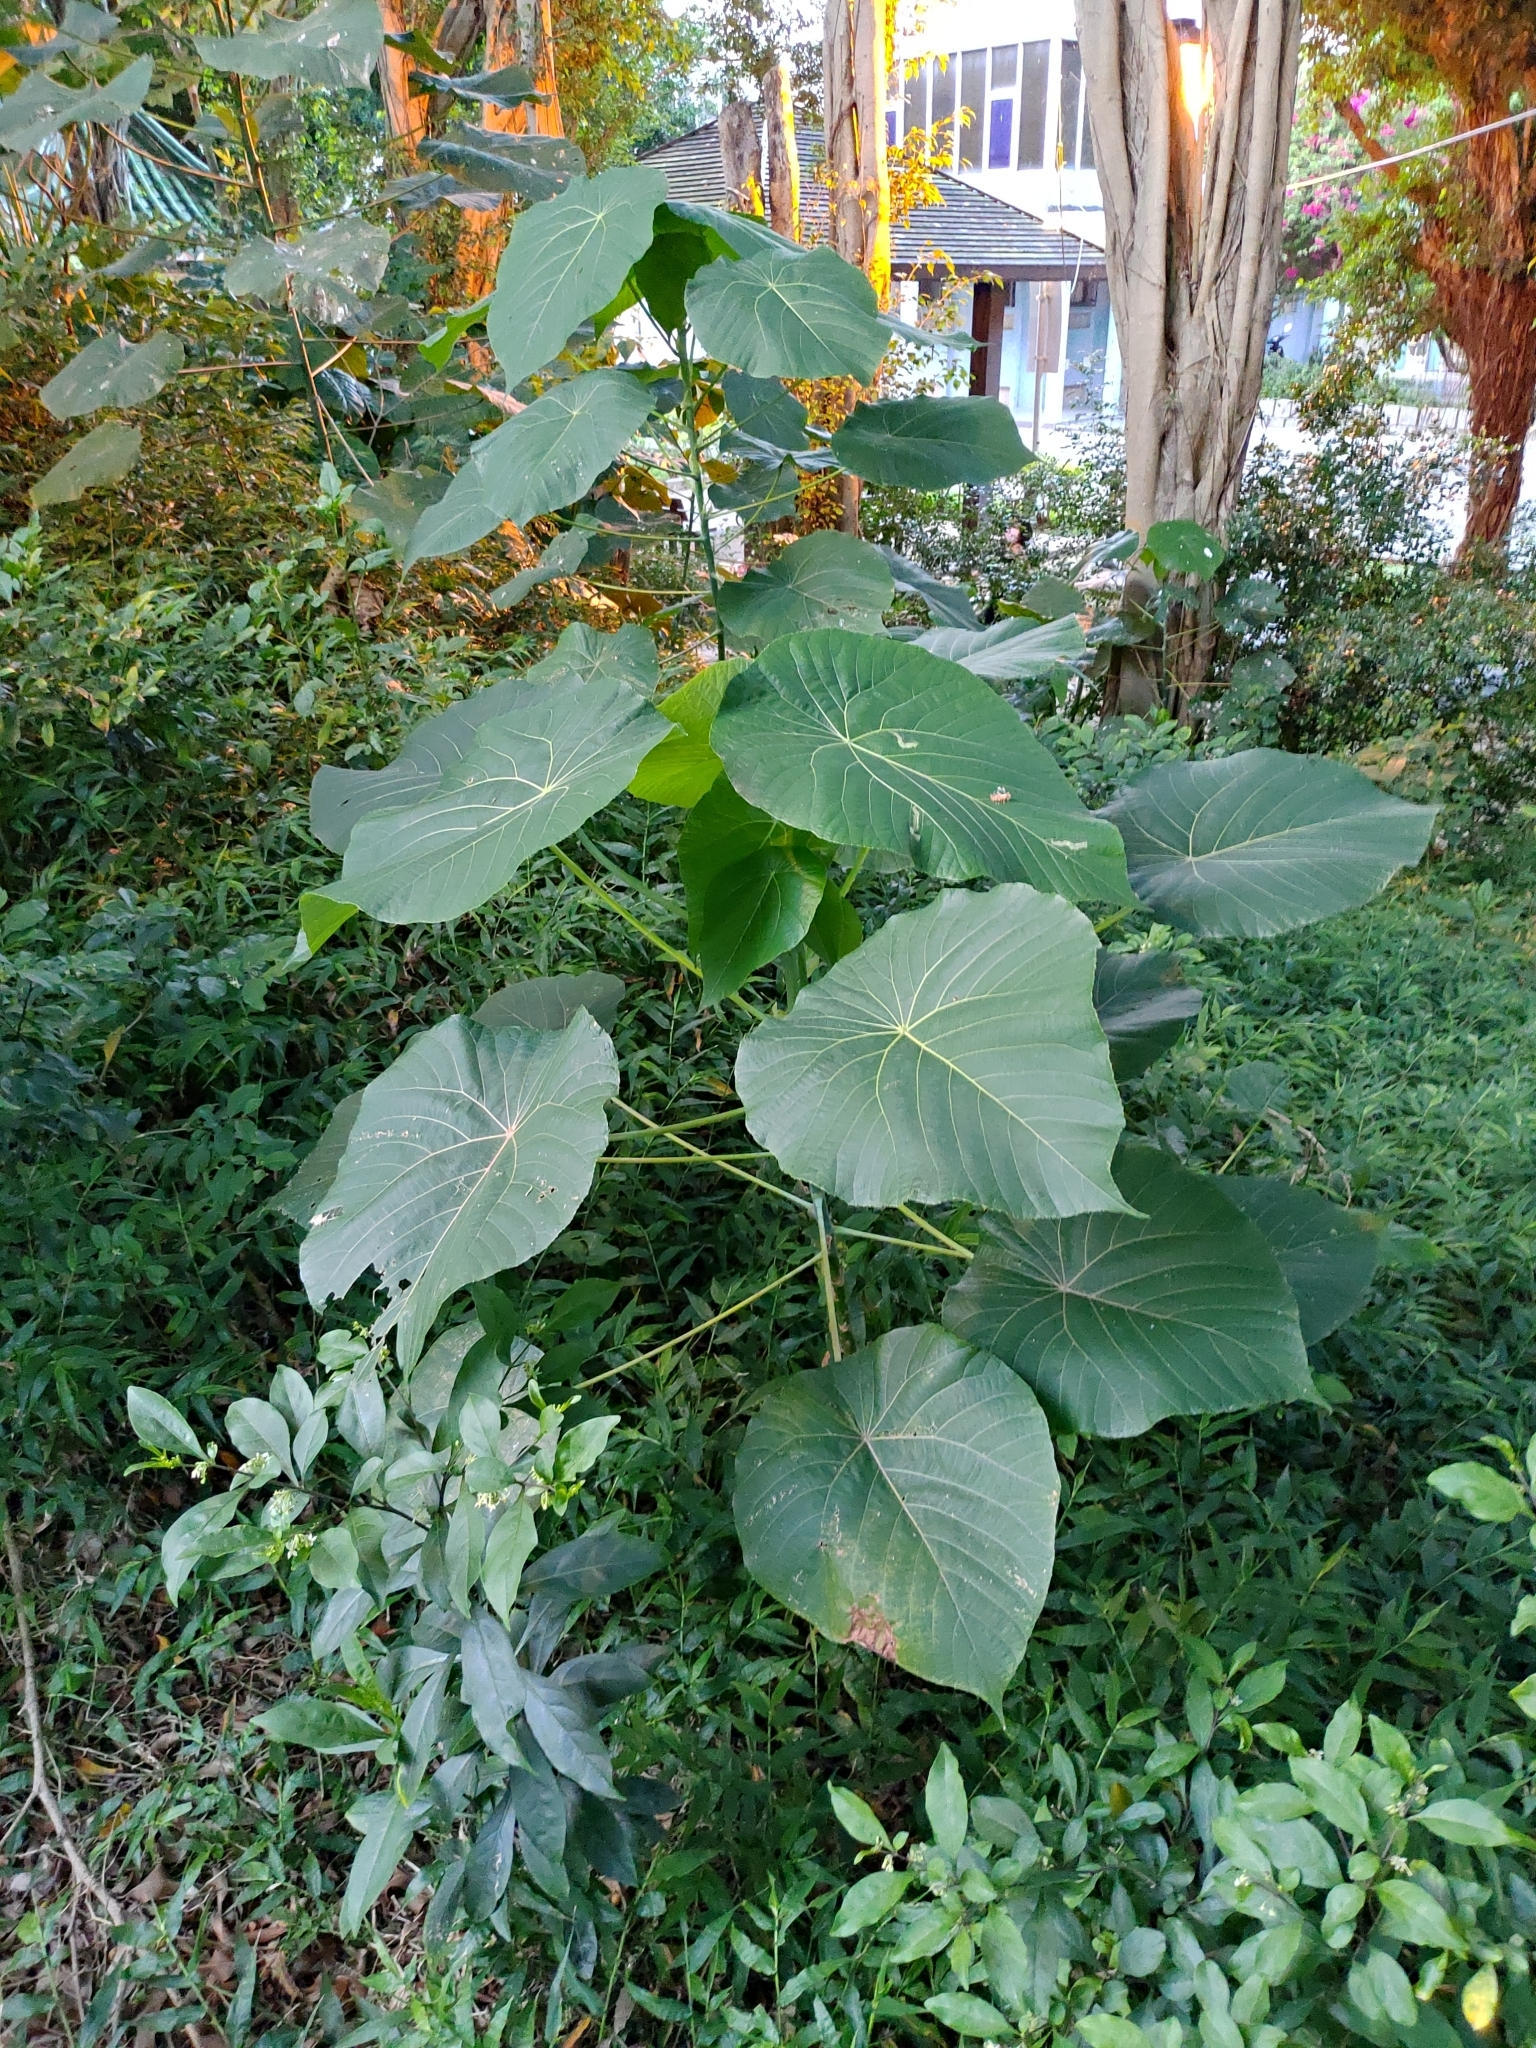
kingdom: Plantae
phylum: Tracheophyta
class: Magnoliopsida
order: Malpighiales
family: Euphorbiaceae
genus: Macaranga
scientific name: Macaranga tanarius
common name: Parasol leaf tree
